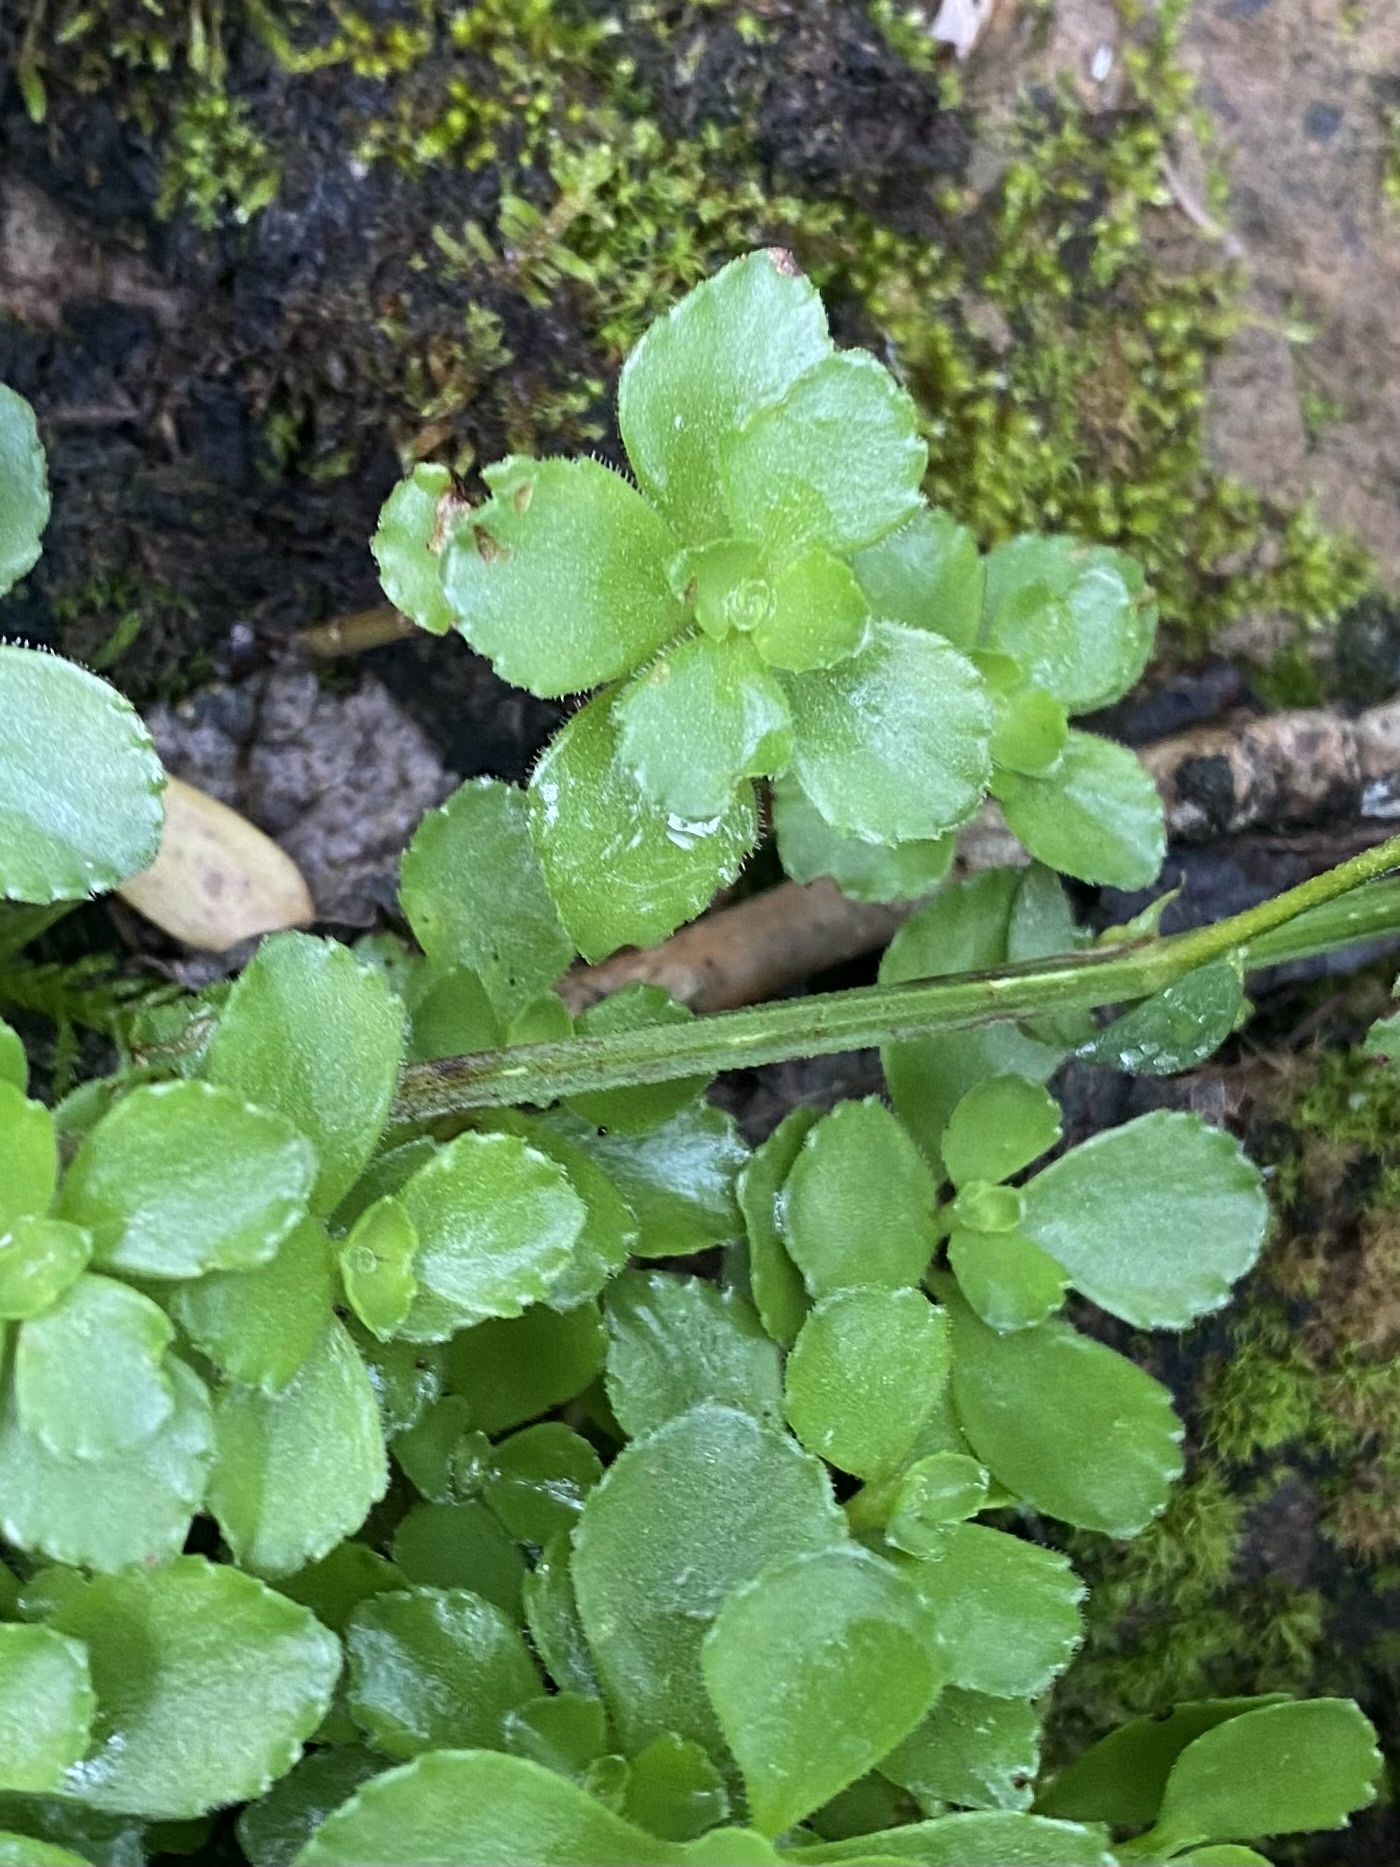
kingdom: Plantae
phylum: Tracheophyta
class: Magnoliopsida
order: Saxifragales
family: Crassulaceae
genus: Phedimus
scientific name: Phedimus spurius
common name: Caucasian stonecrop
